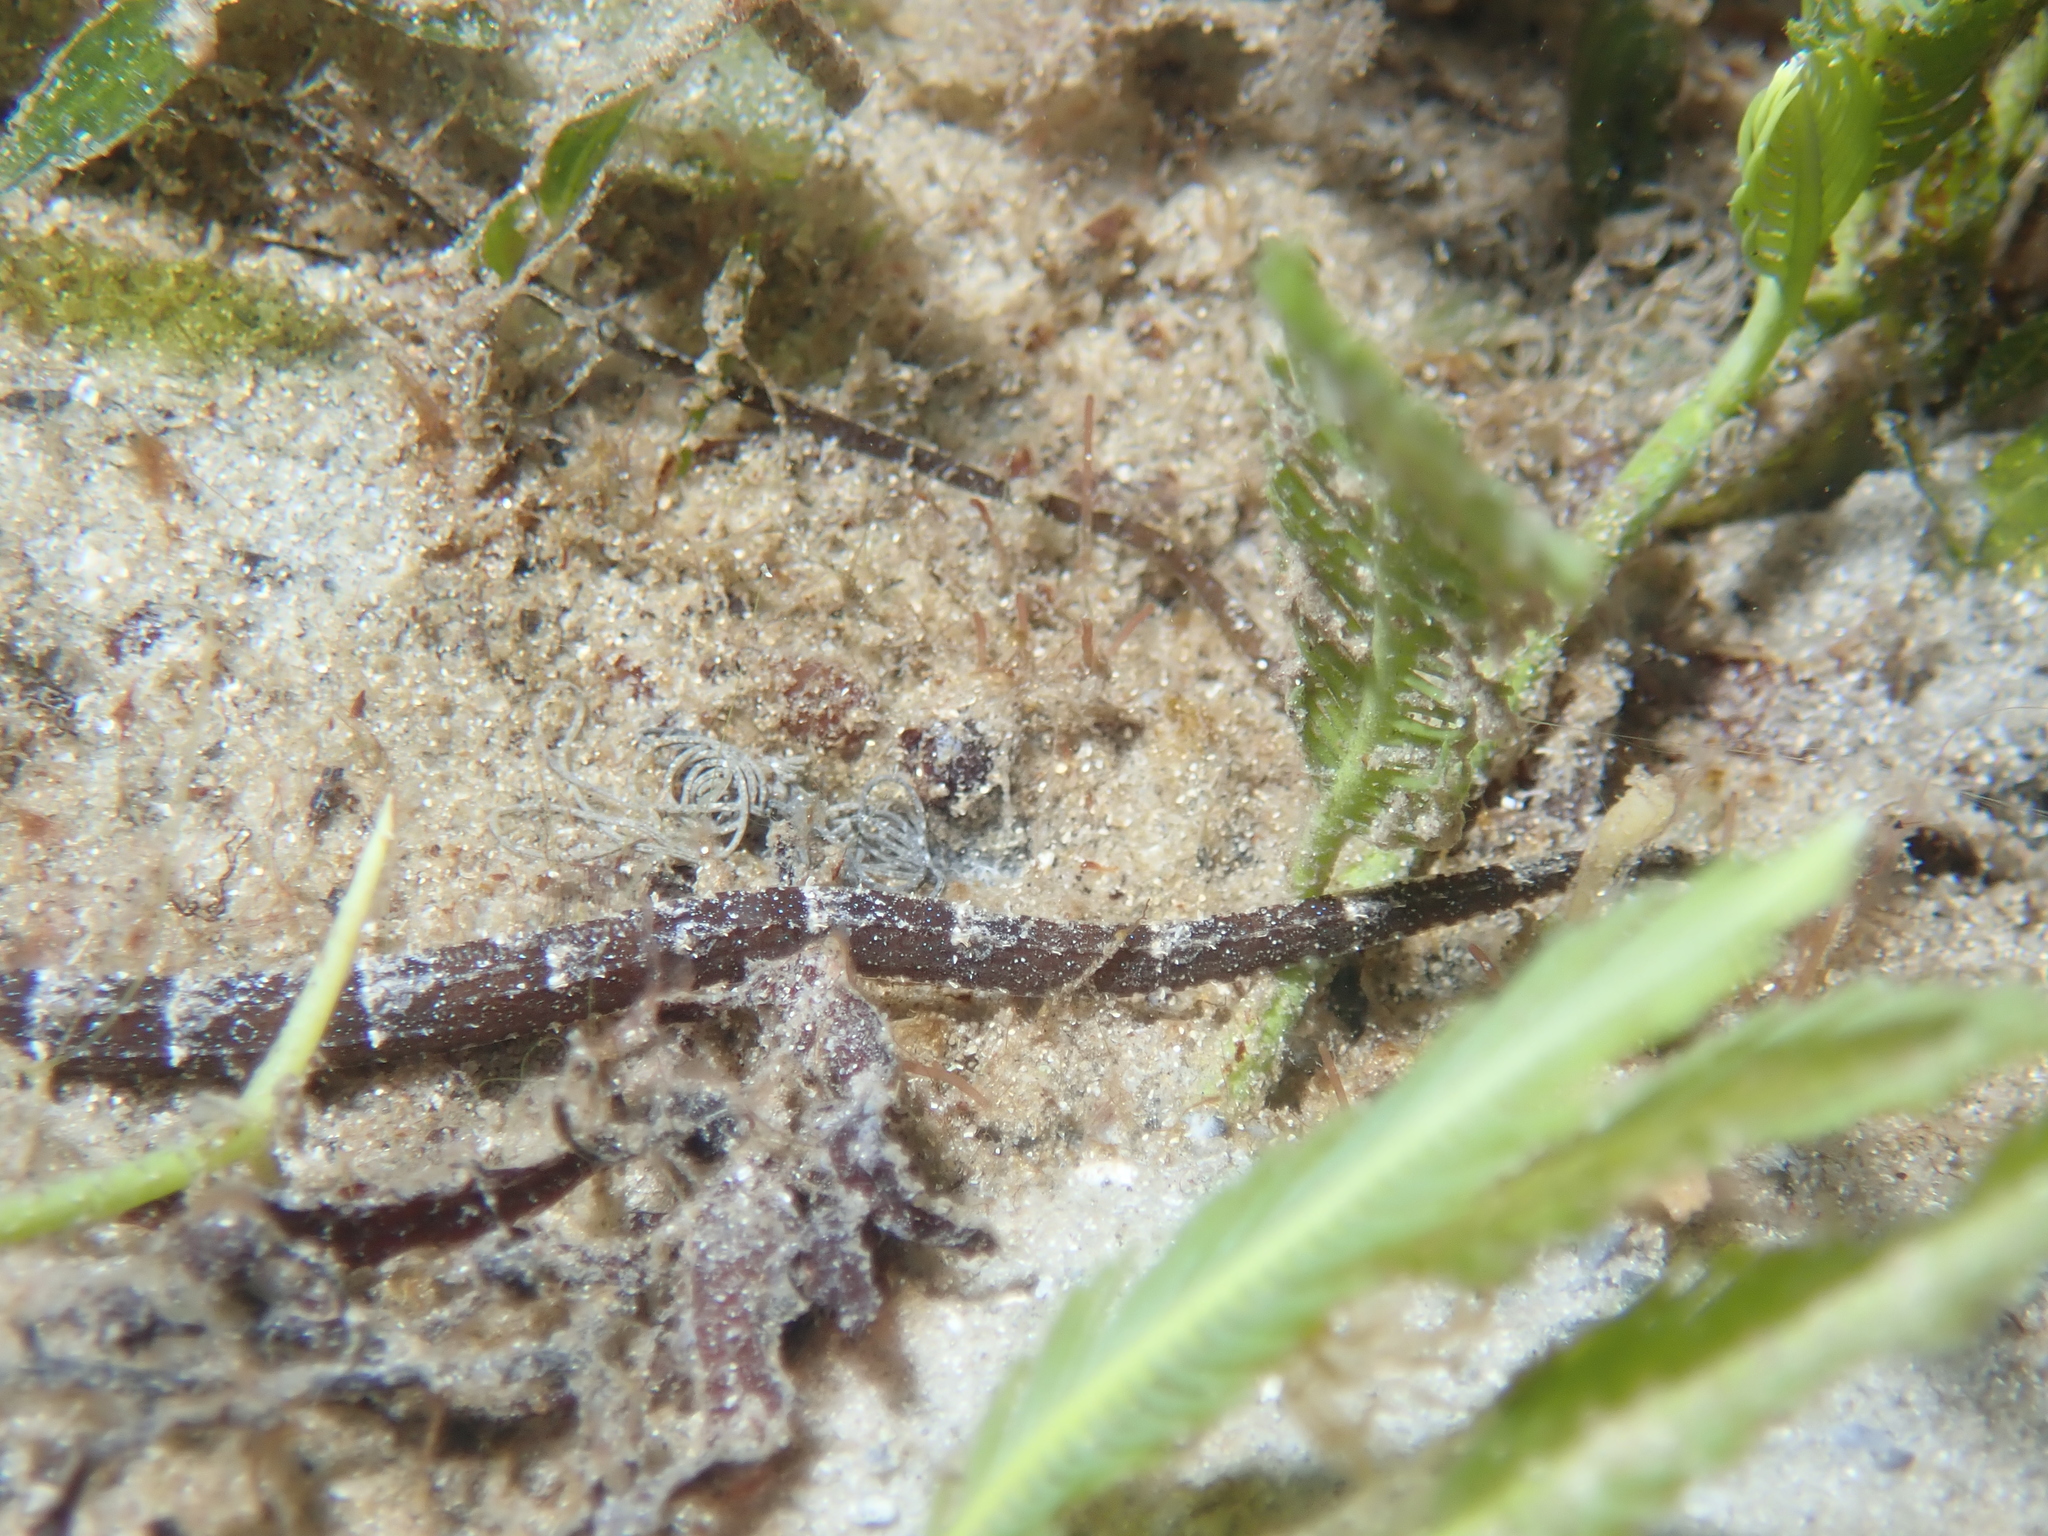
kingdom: Animalia
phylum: Chordata
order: Syngnathiformes
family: Syngnathidae
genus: Cosmocampus
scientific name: Cosmocampus elucens
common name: Poey's pipefish
